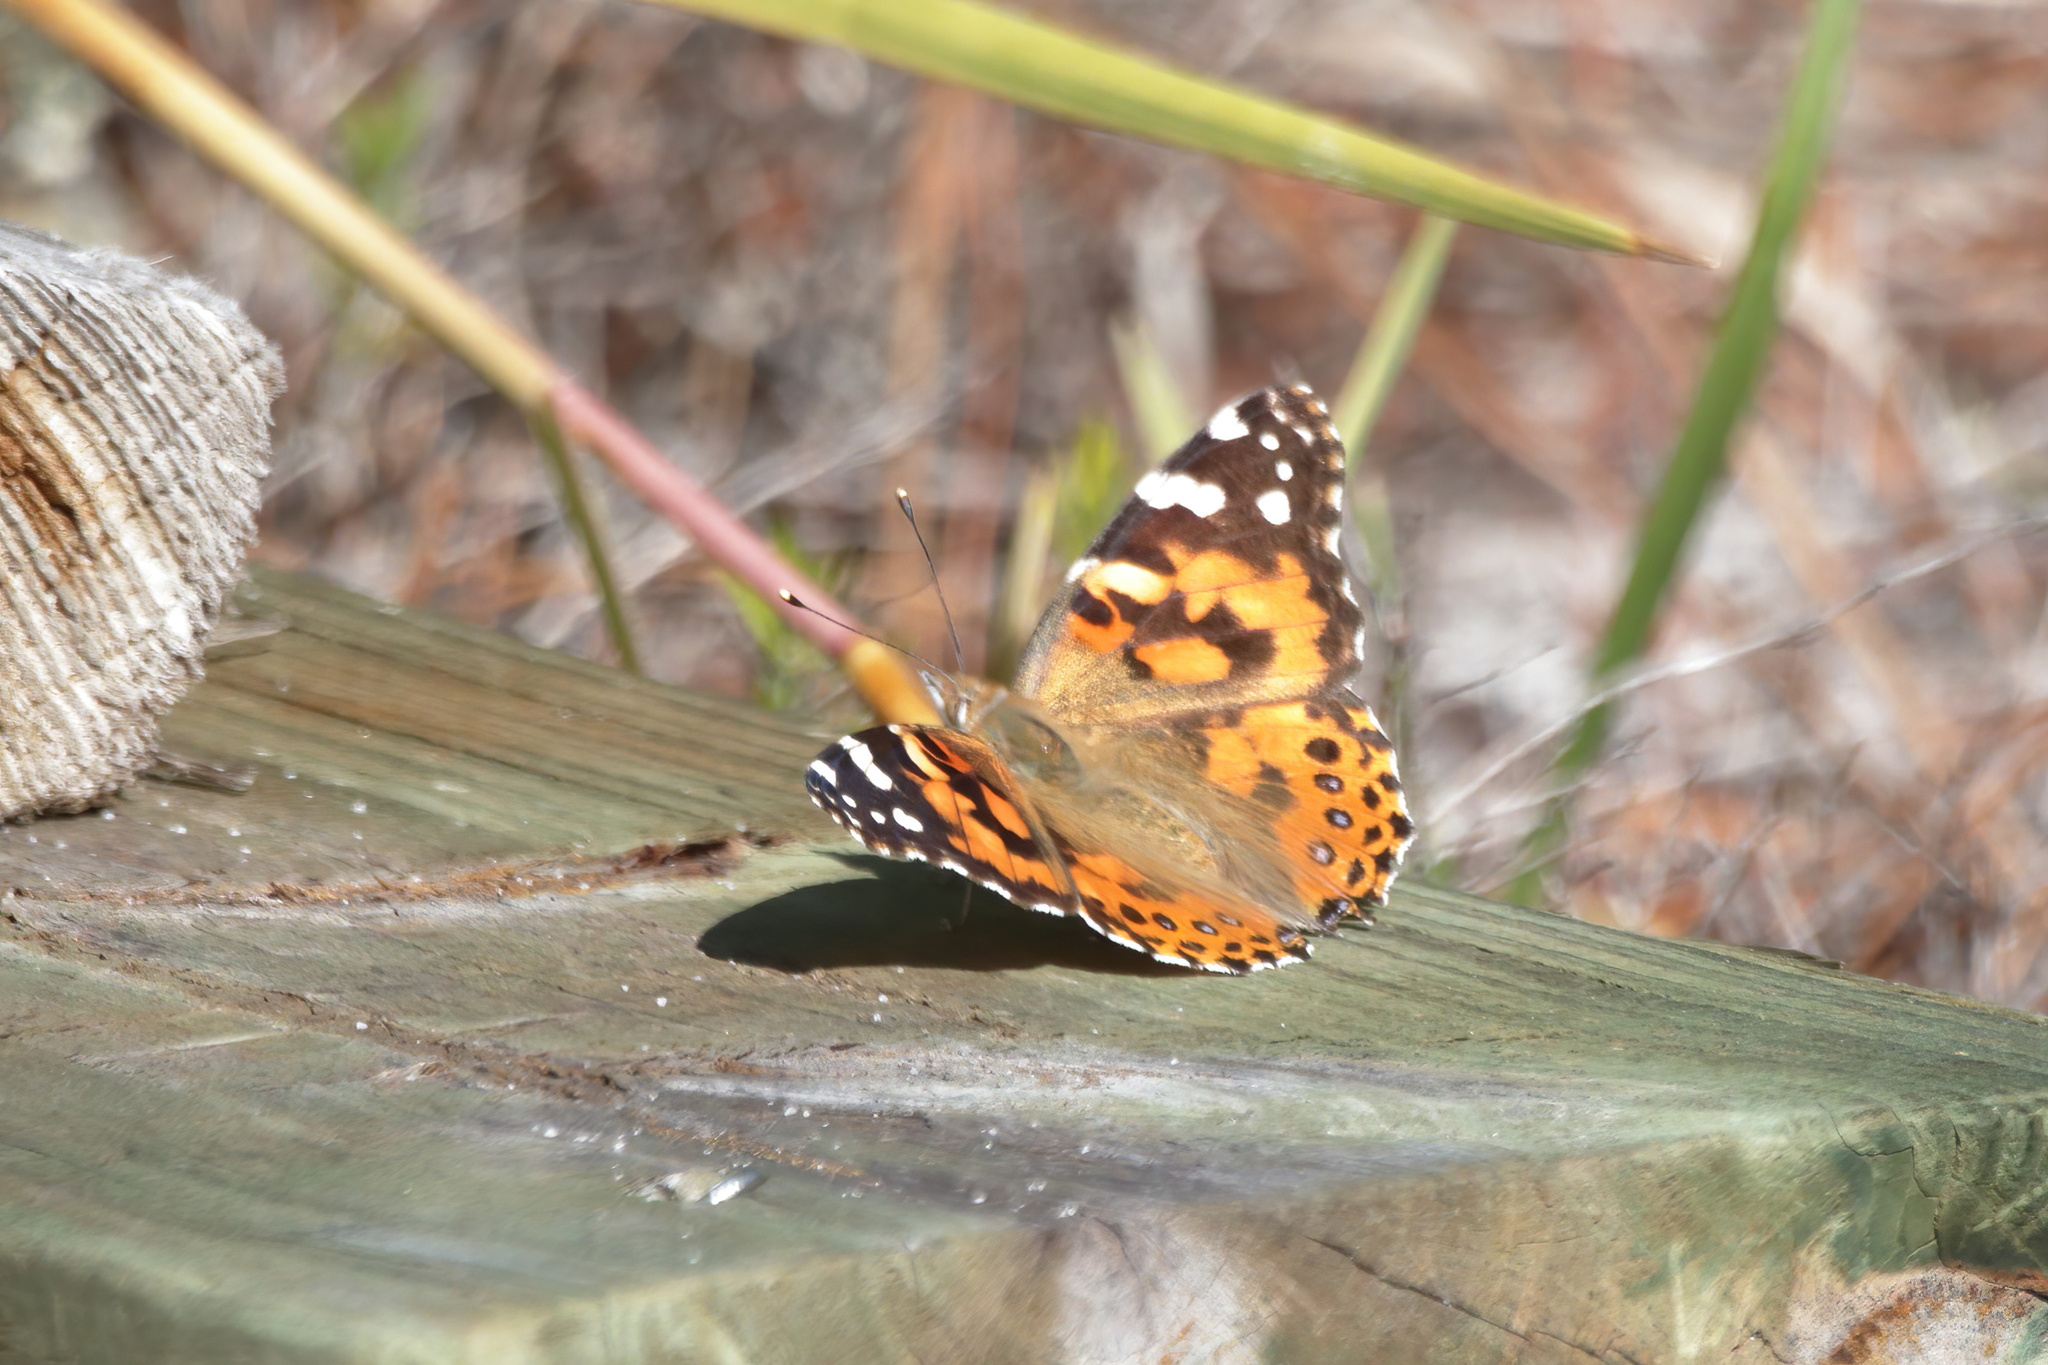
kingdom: Animalia
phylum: Arthropoda
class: Insecta
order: Lepidoptera
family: Nymphalidae
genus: Vanessa
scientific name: Vanessa cardui
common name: Painted lady
